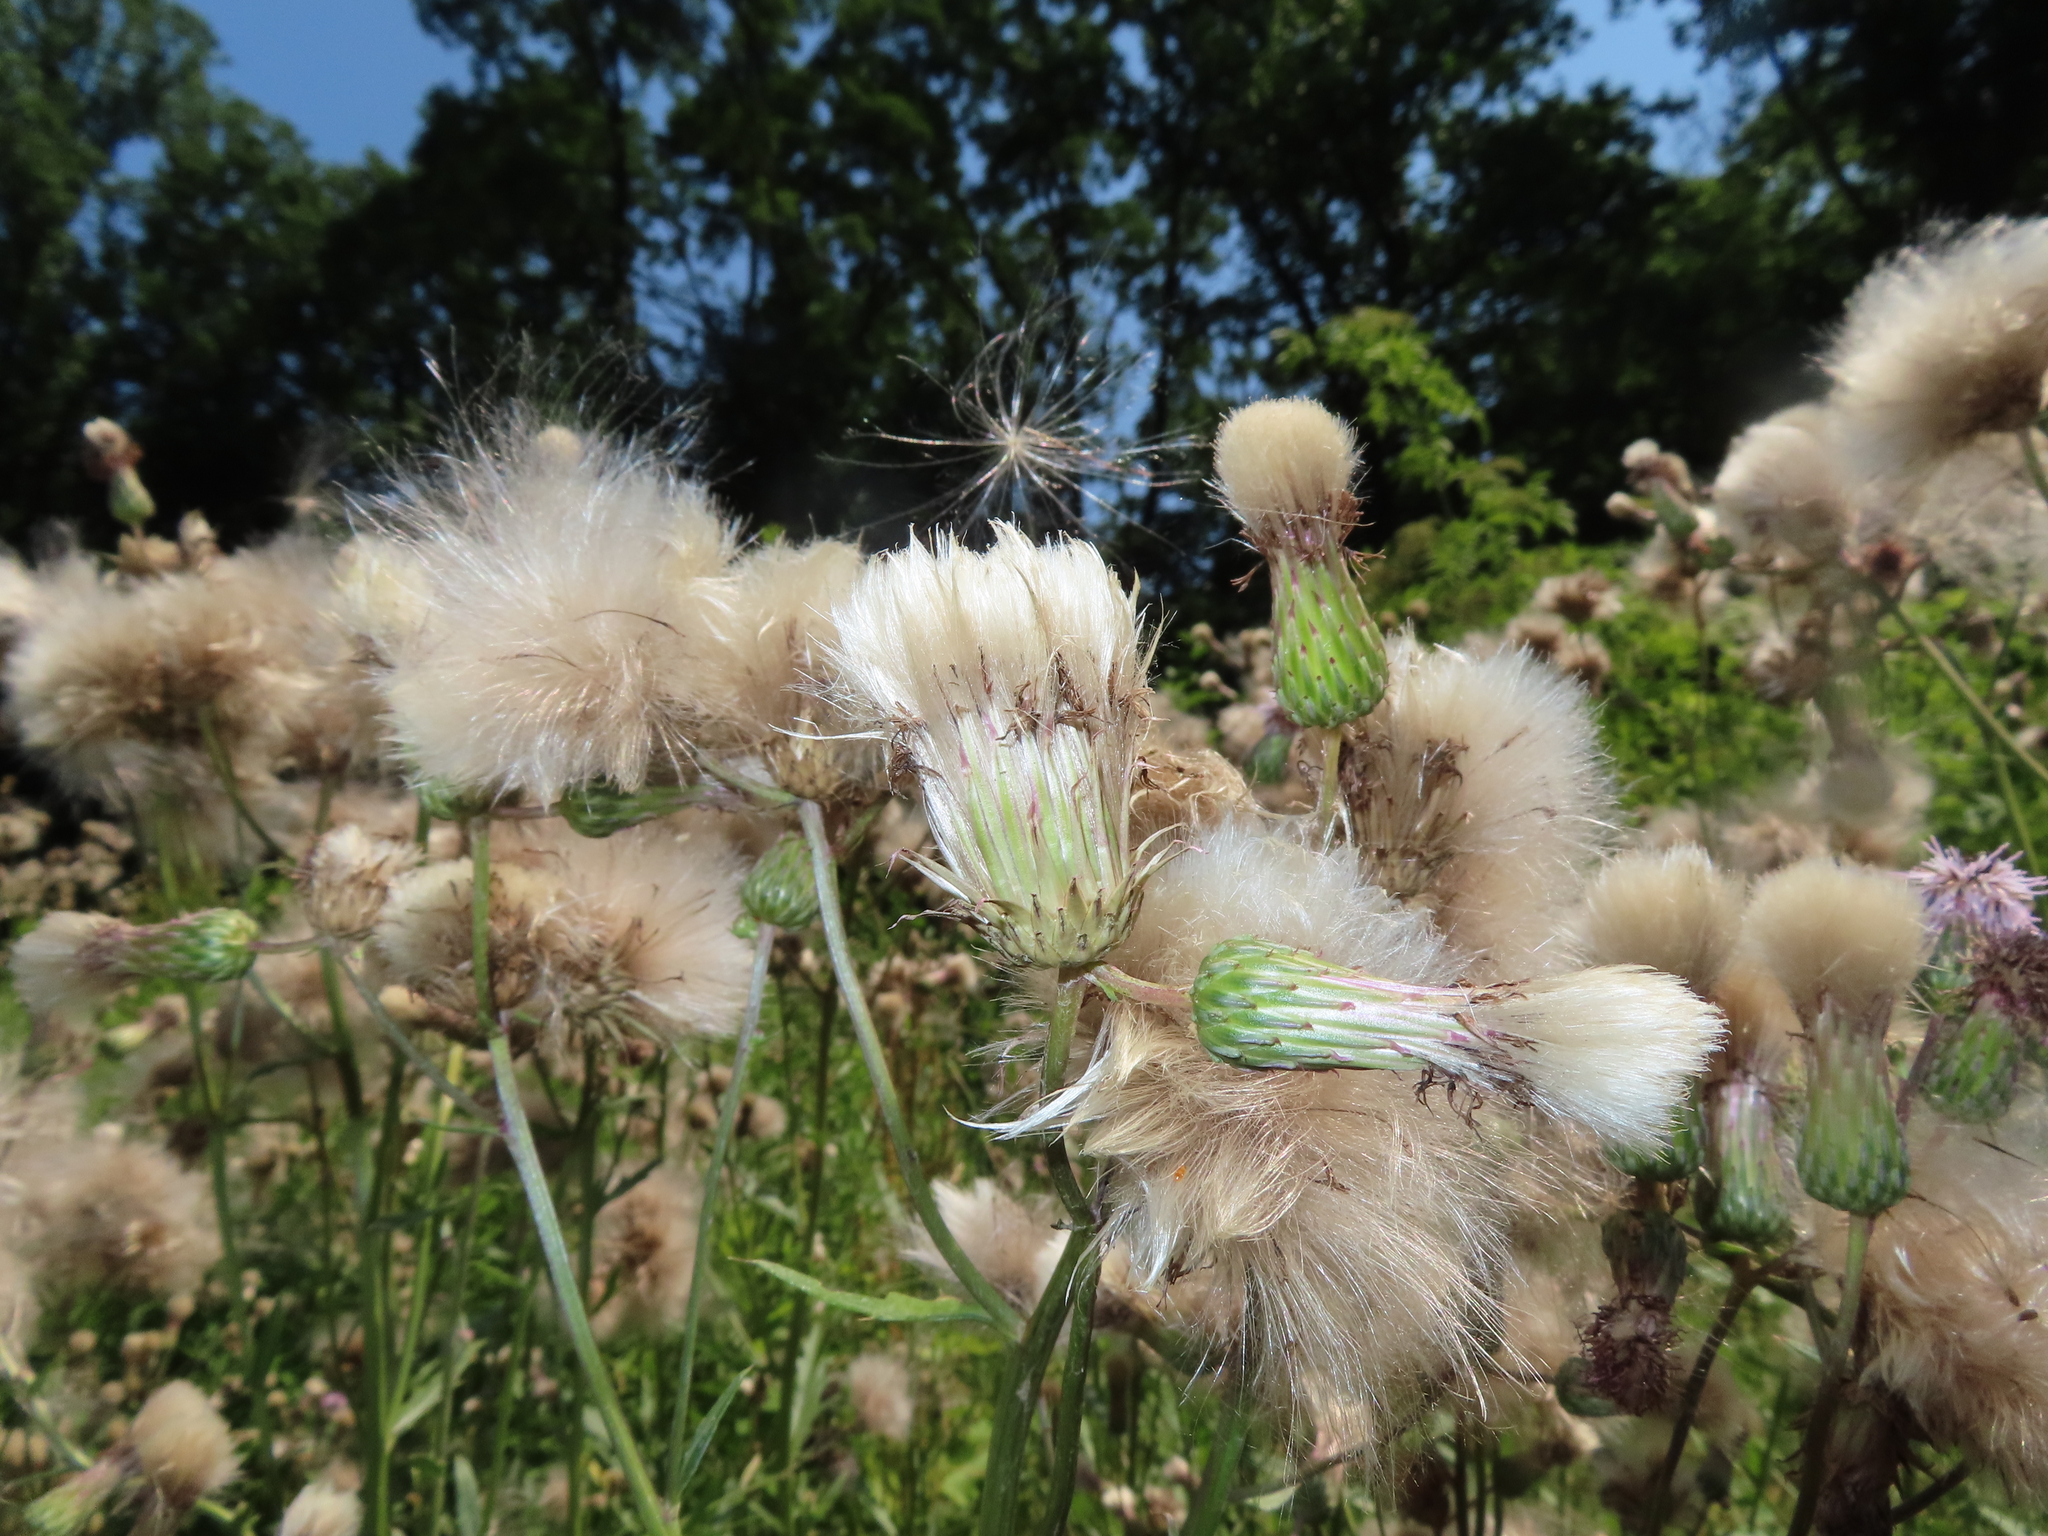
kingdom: Plantae
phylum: Tracheophyta
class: Magnoliopsida
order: Asterales
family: Asteraceae
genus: Cirsium
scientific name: Cirsium arvense
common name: Creeping thistle
